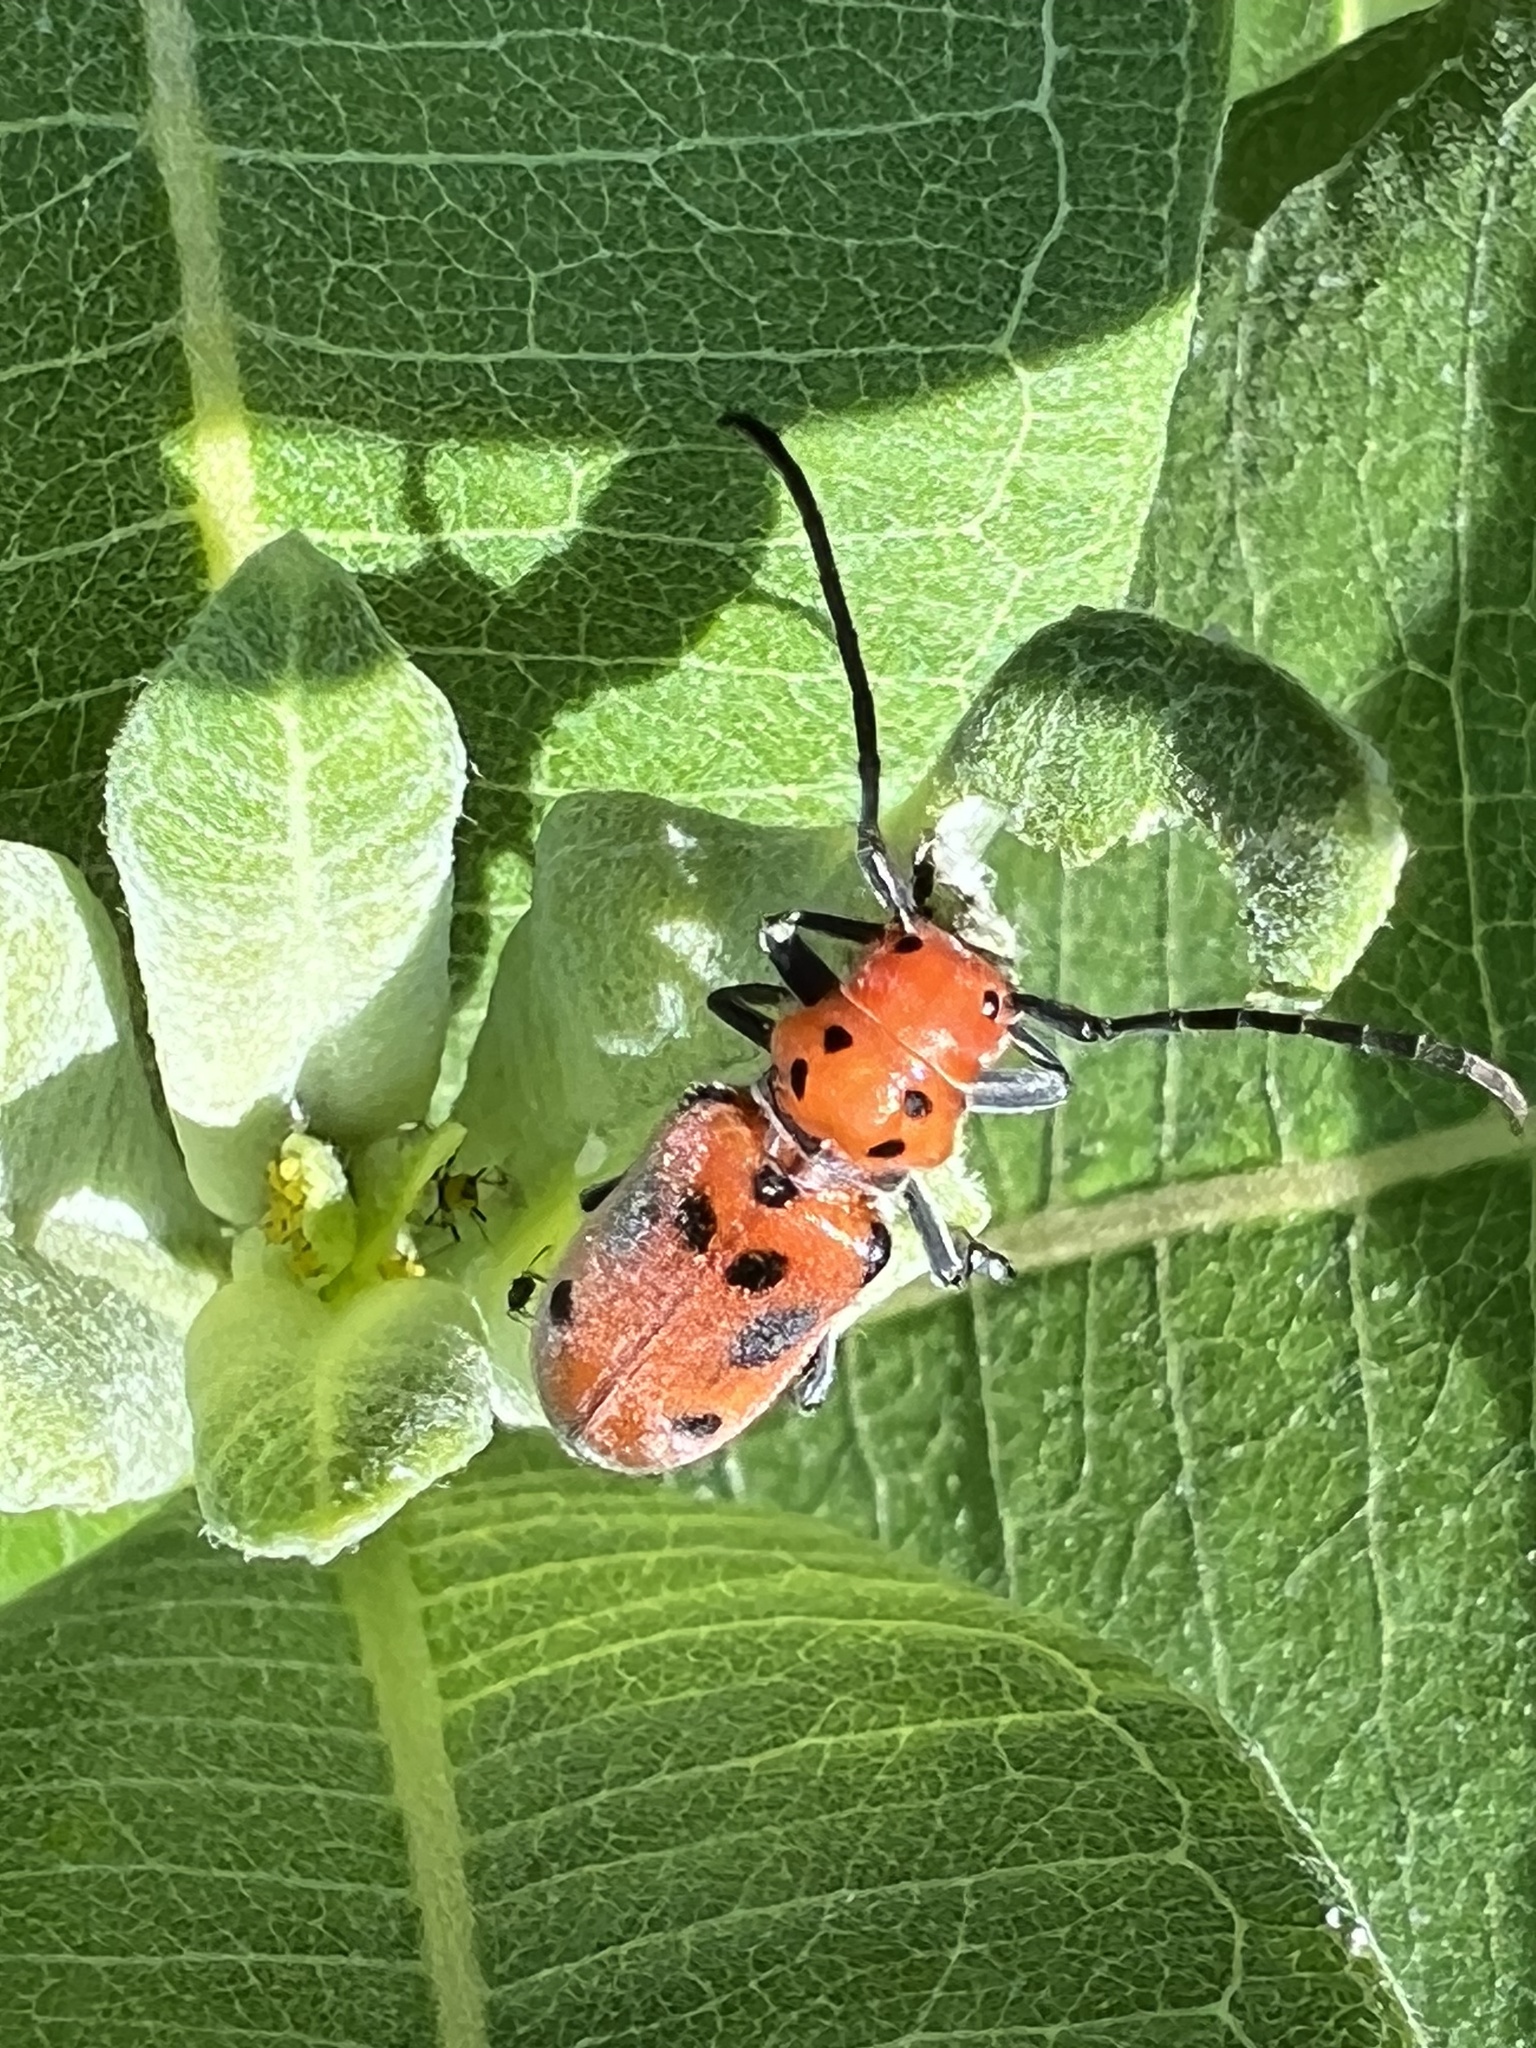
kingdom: Animalia
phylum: Arthropoda
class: Insecta
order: Coleoptera
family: Cerambycidae
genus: Tetraopes
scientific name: Tetraopes tetrophthalmus
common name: Red milkweed beetle
